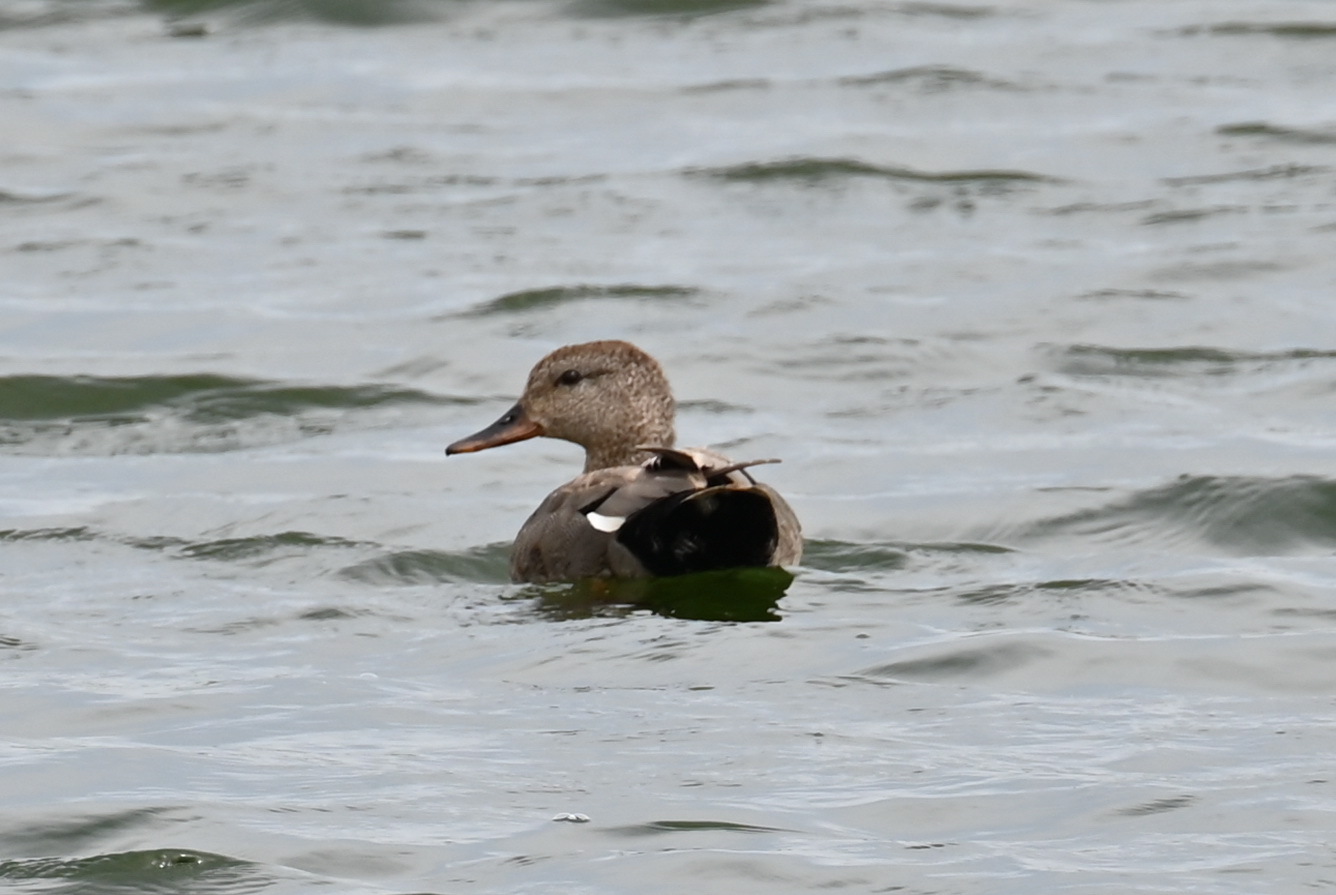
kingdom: Animalia
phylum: Chordata
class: Aves
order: Anseriformes
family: Anatidae
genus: Mareca
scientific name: Mareca strepera
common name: Gadwall
